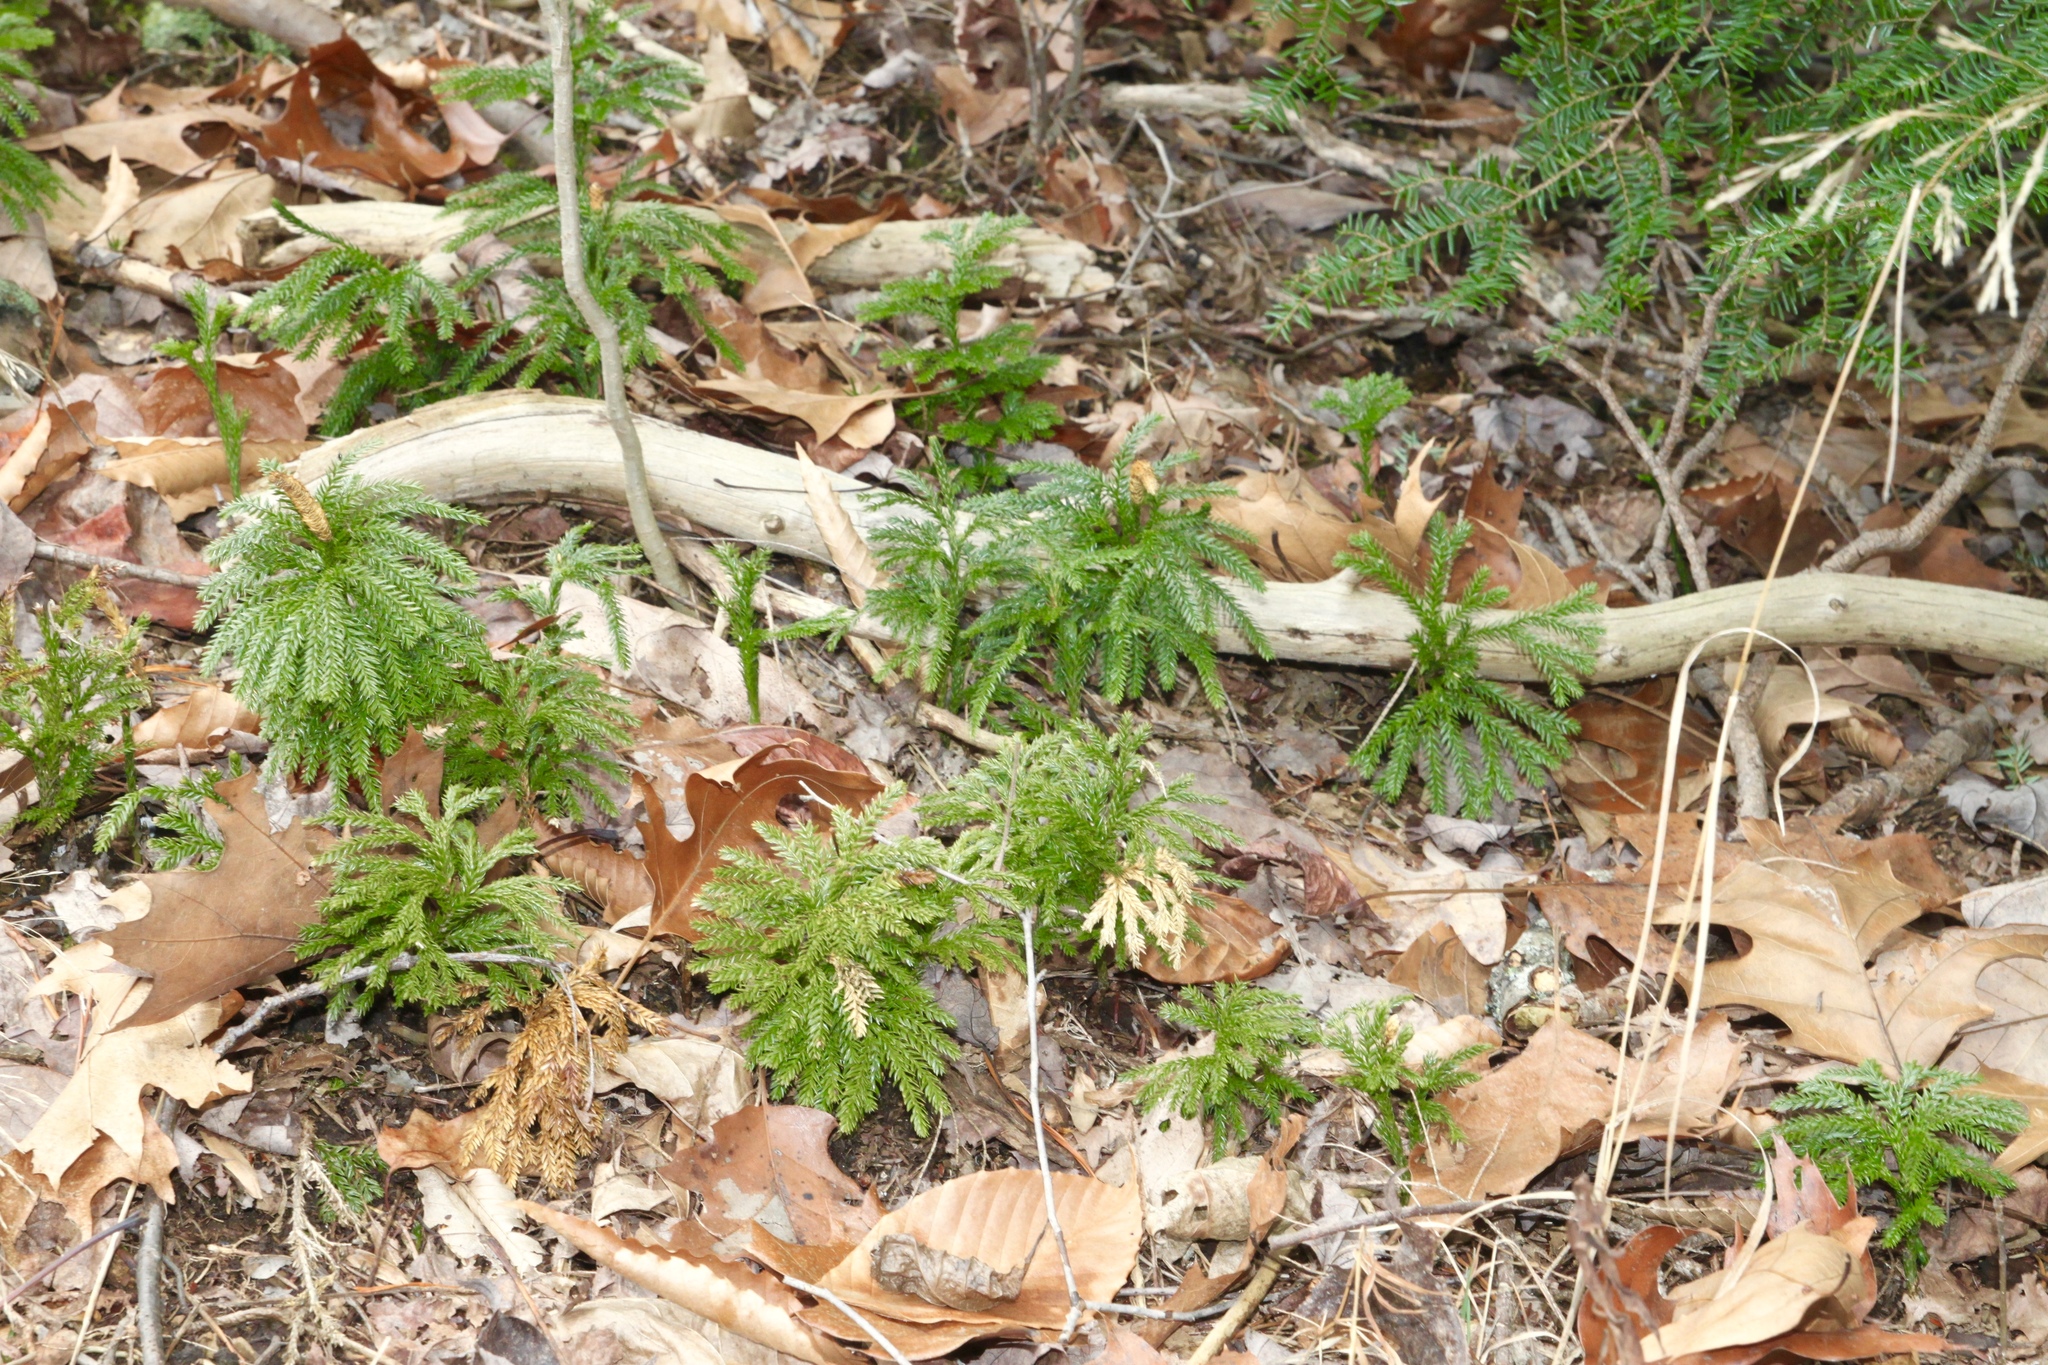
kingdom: Plantae
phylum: Tracheophyta
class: Lycopodiopsida
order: Lycopodiales
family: Lycopodiaceae
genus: Dendrolycopodium
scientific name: Dendrolycopodium obscurum
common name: Common ground-pine
